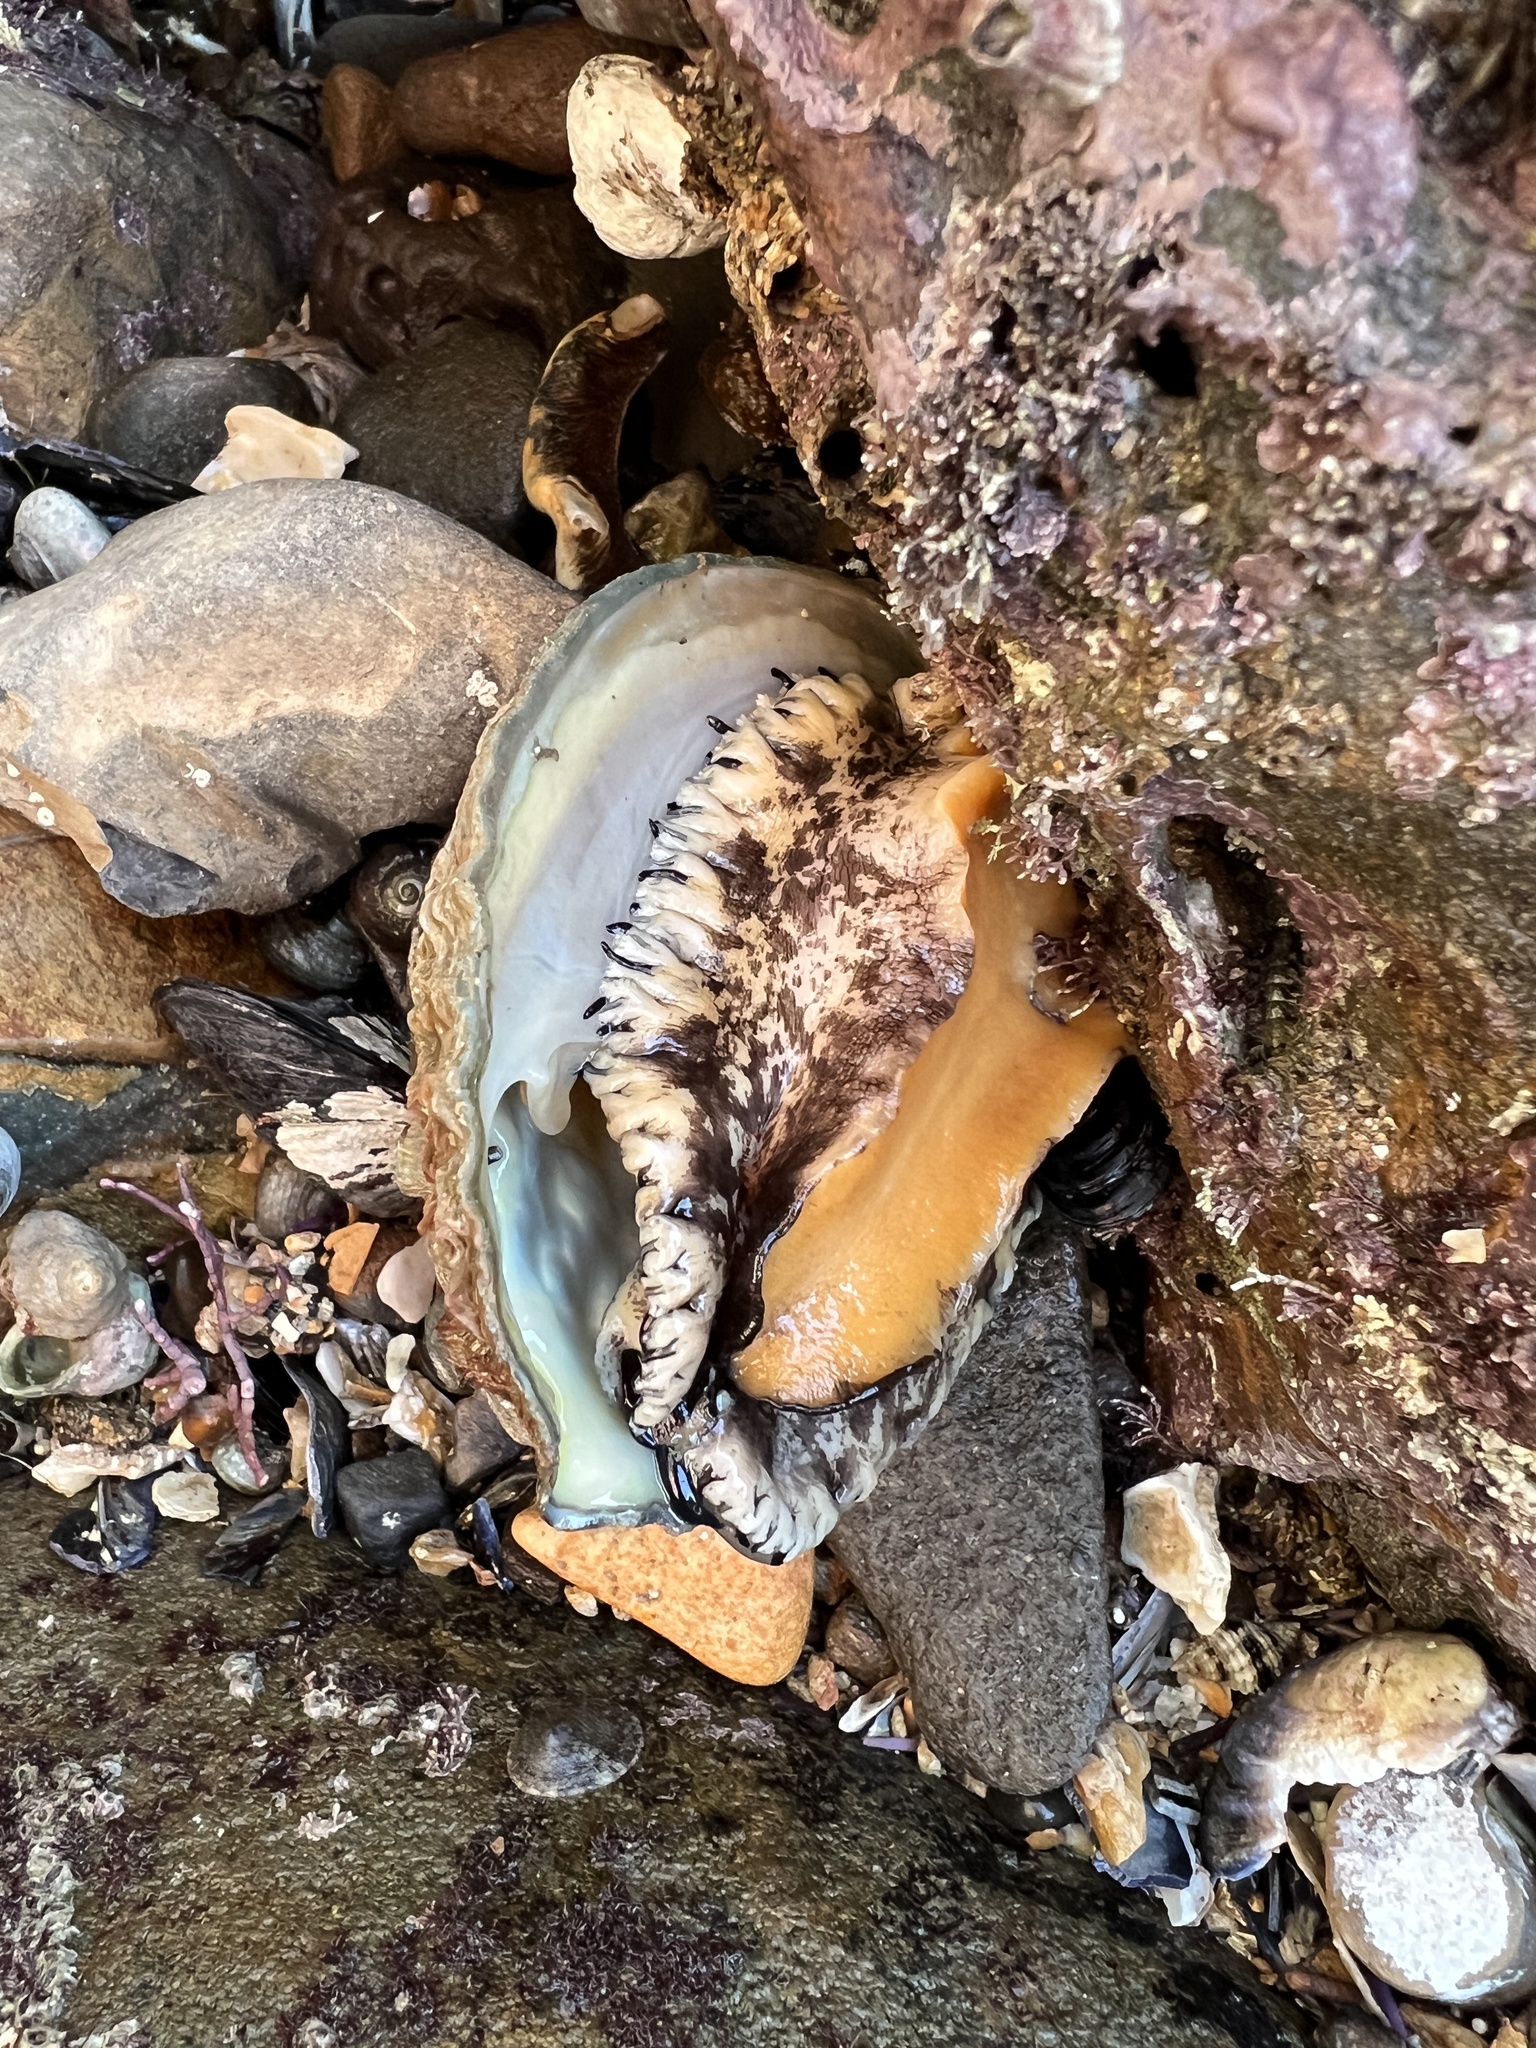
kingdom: Animalia
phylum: Mollusca
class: Gastropoda
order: Lepetellida
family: Haliotidae
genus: Haliotis
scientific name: Haliotis corrugata
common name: Pink abalone
